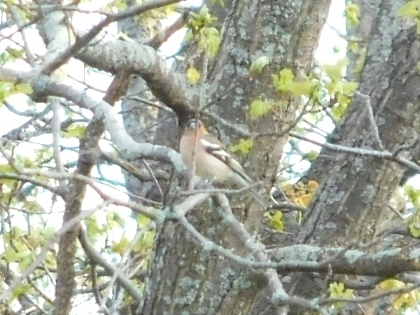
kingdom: Animalia
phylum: Chordata
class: Aves
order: Passeriformes
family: Fringillidae
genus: Fringilla
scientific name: Fringilla coelebs
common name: Common chaffinch
